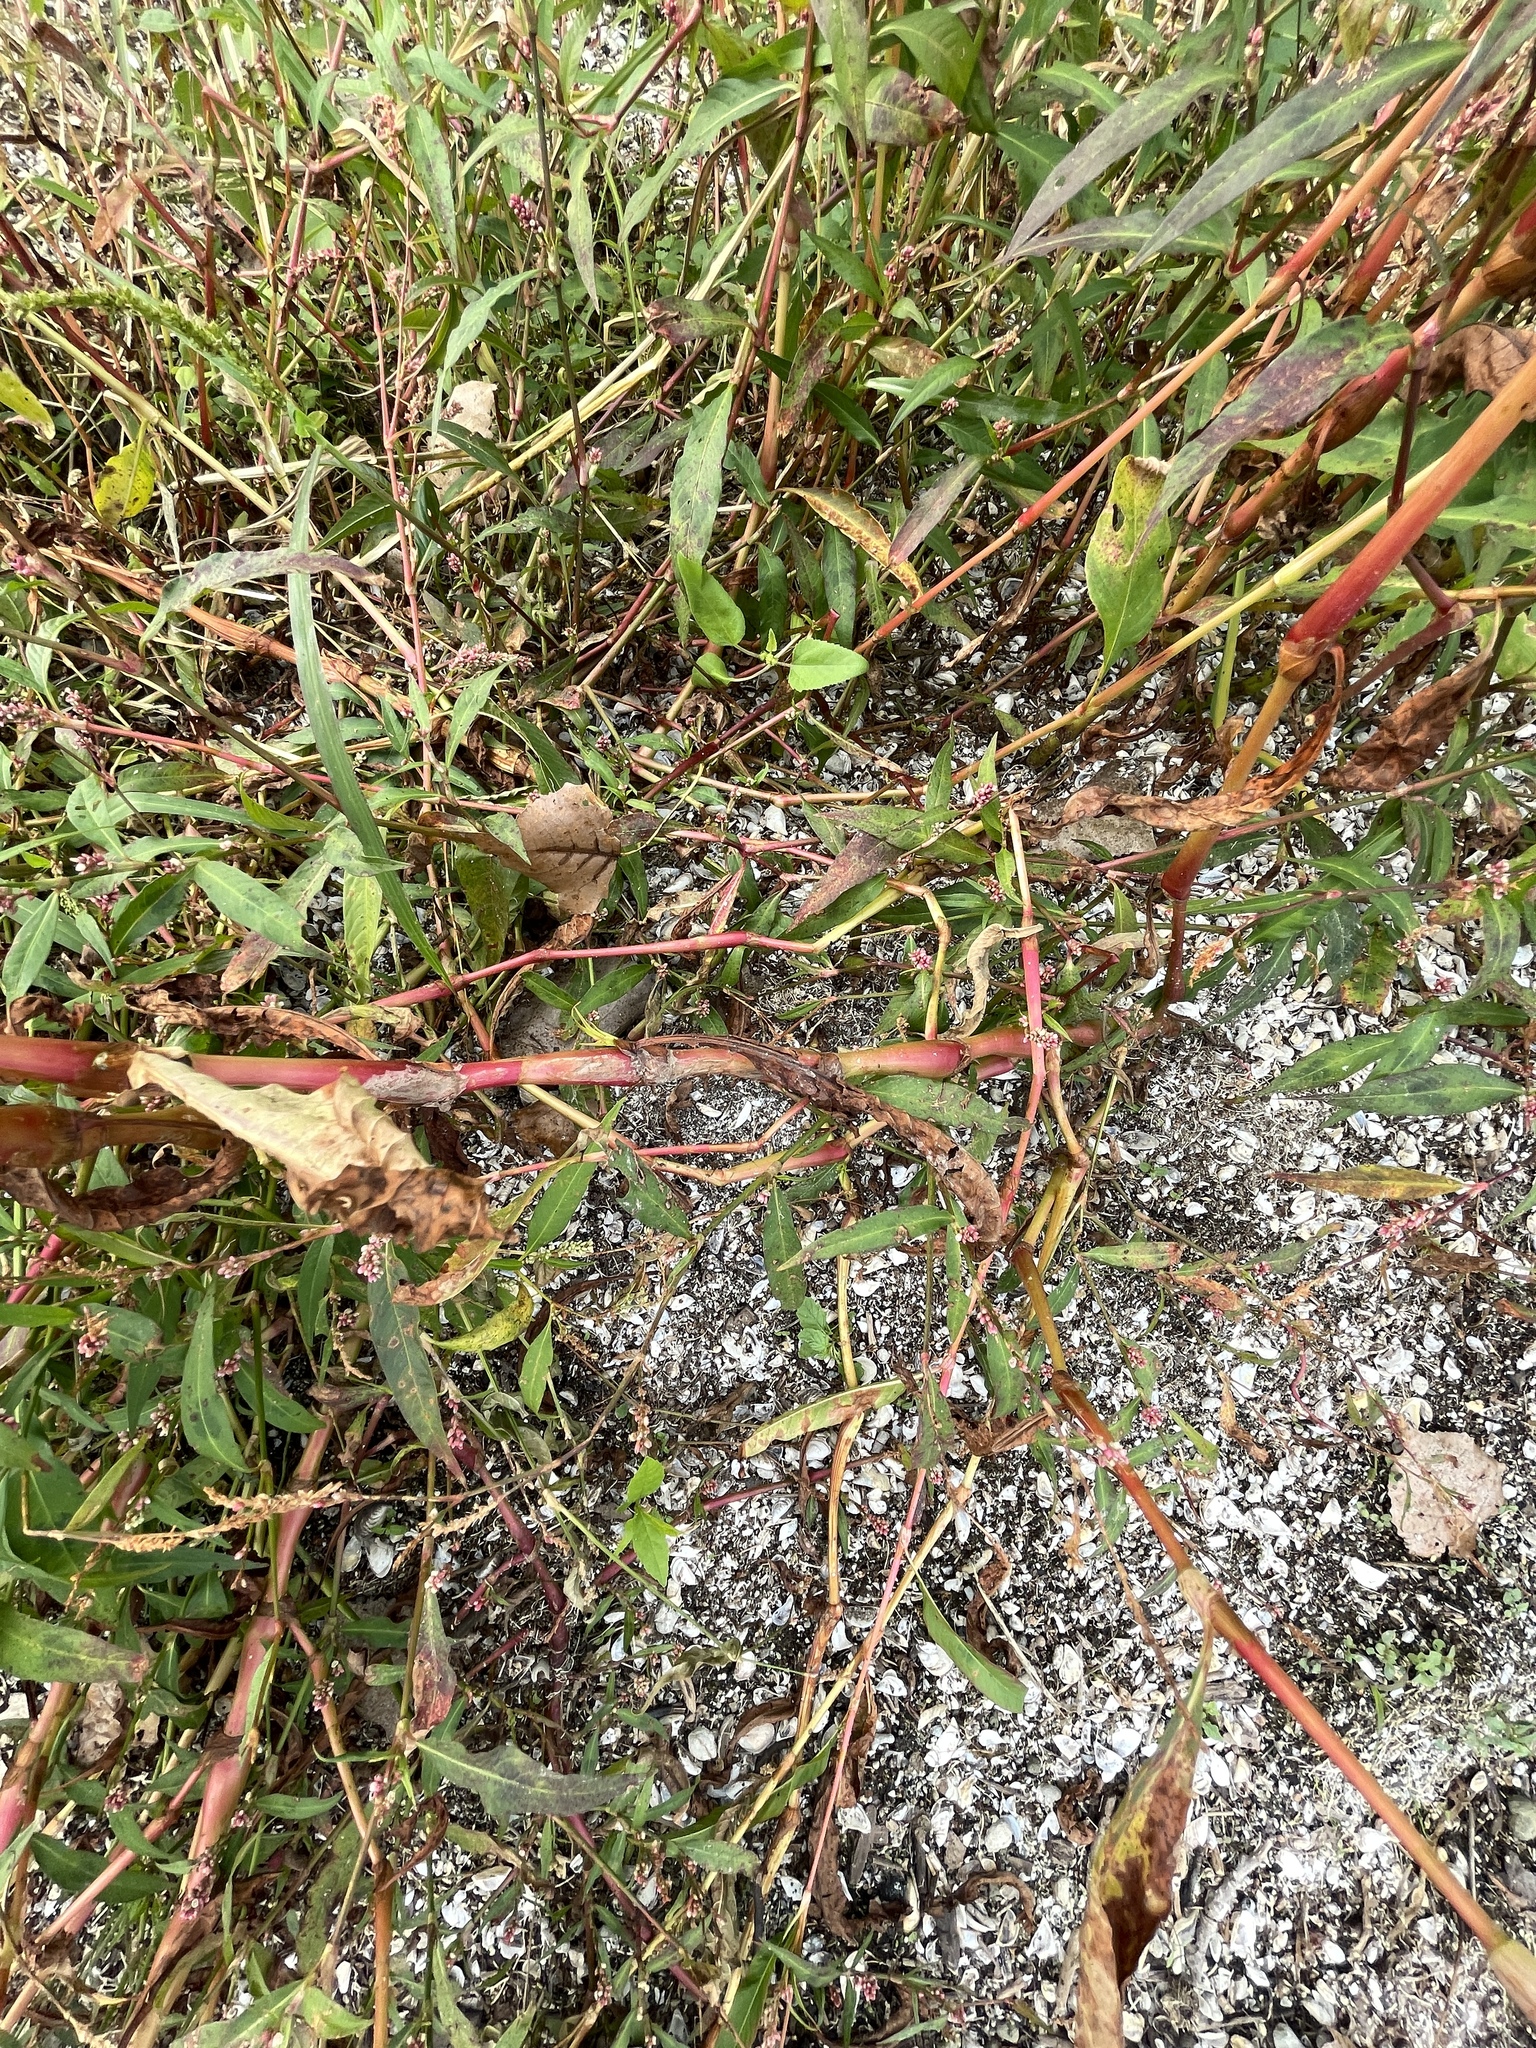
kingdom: Plantae
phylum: Tracheophyta
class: Magnoliopsida
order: Caryophyllales
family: Polygonaceae
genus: Persicaria
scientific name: Persicaria lapathifolia
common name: Curlytop knotweed
